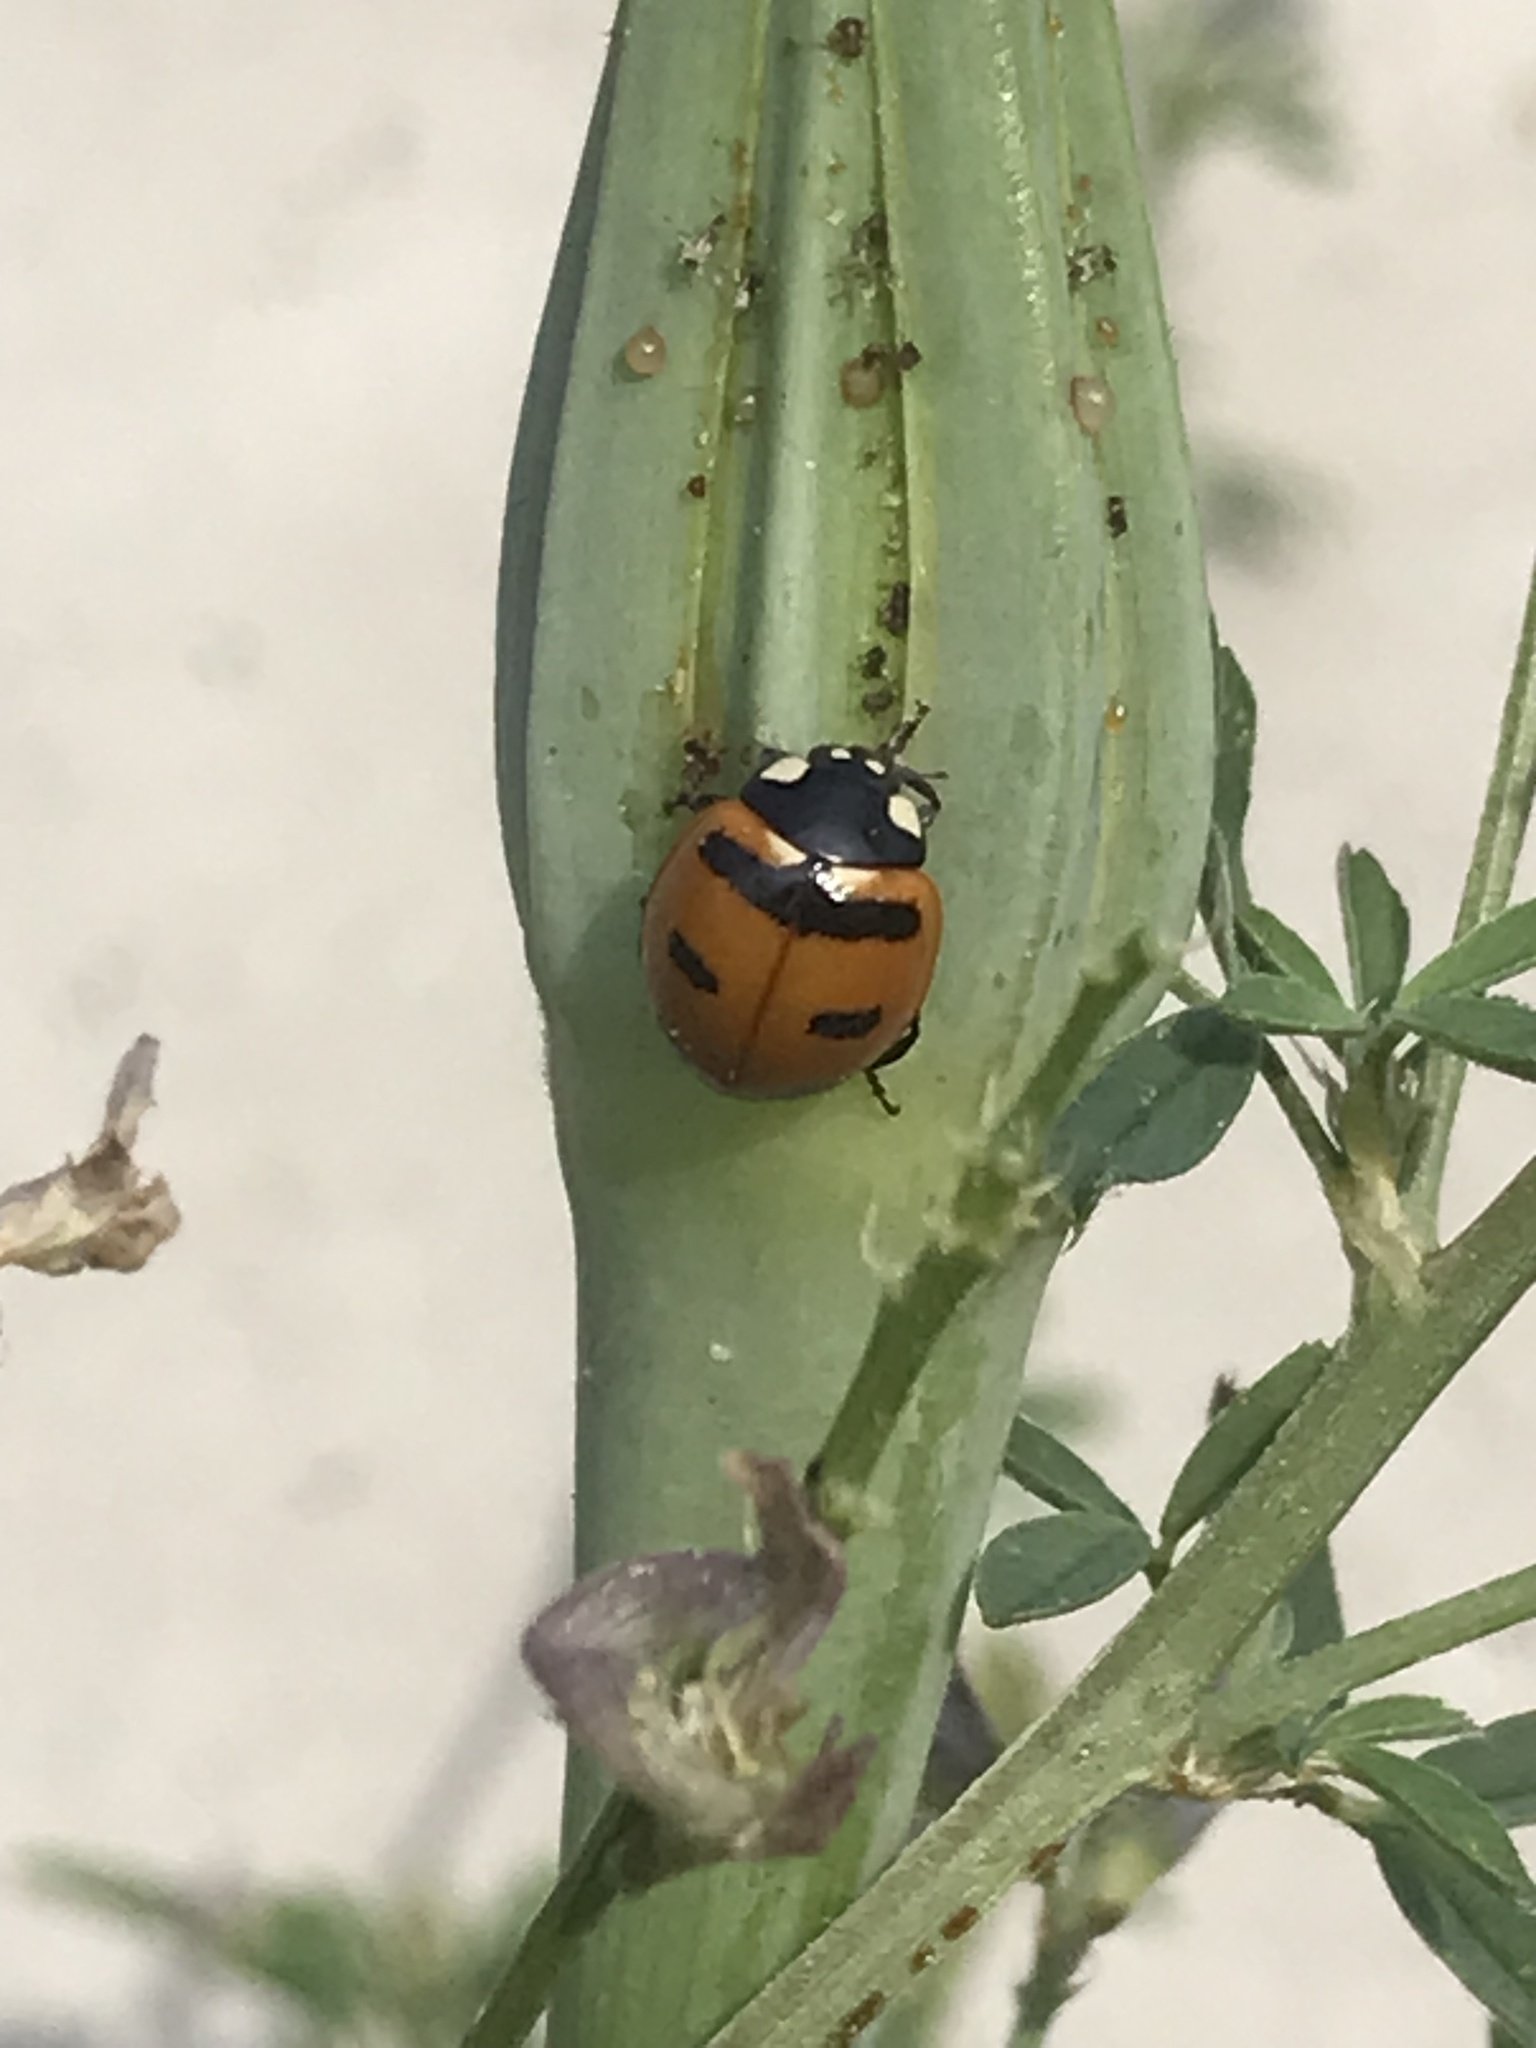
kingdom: Animalia
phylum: Arthropoda
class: Insecta
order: Coleoptera
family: Coccinellidae
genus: Coccinella
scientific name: Coccinella transversoguttata
